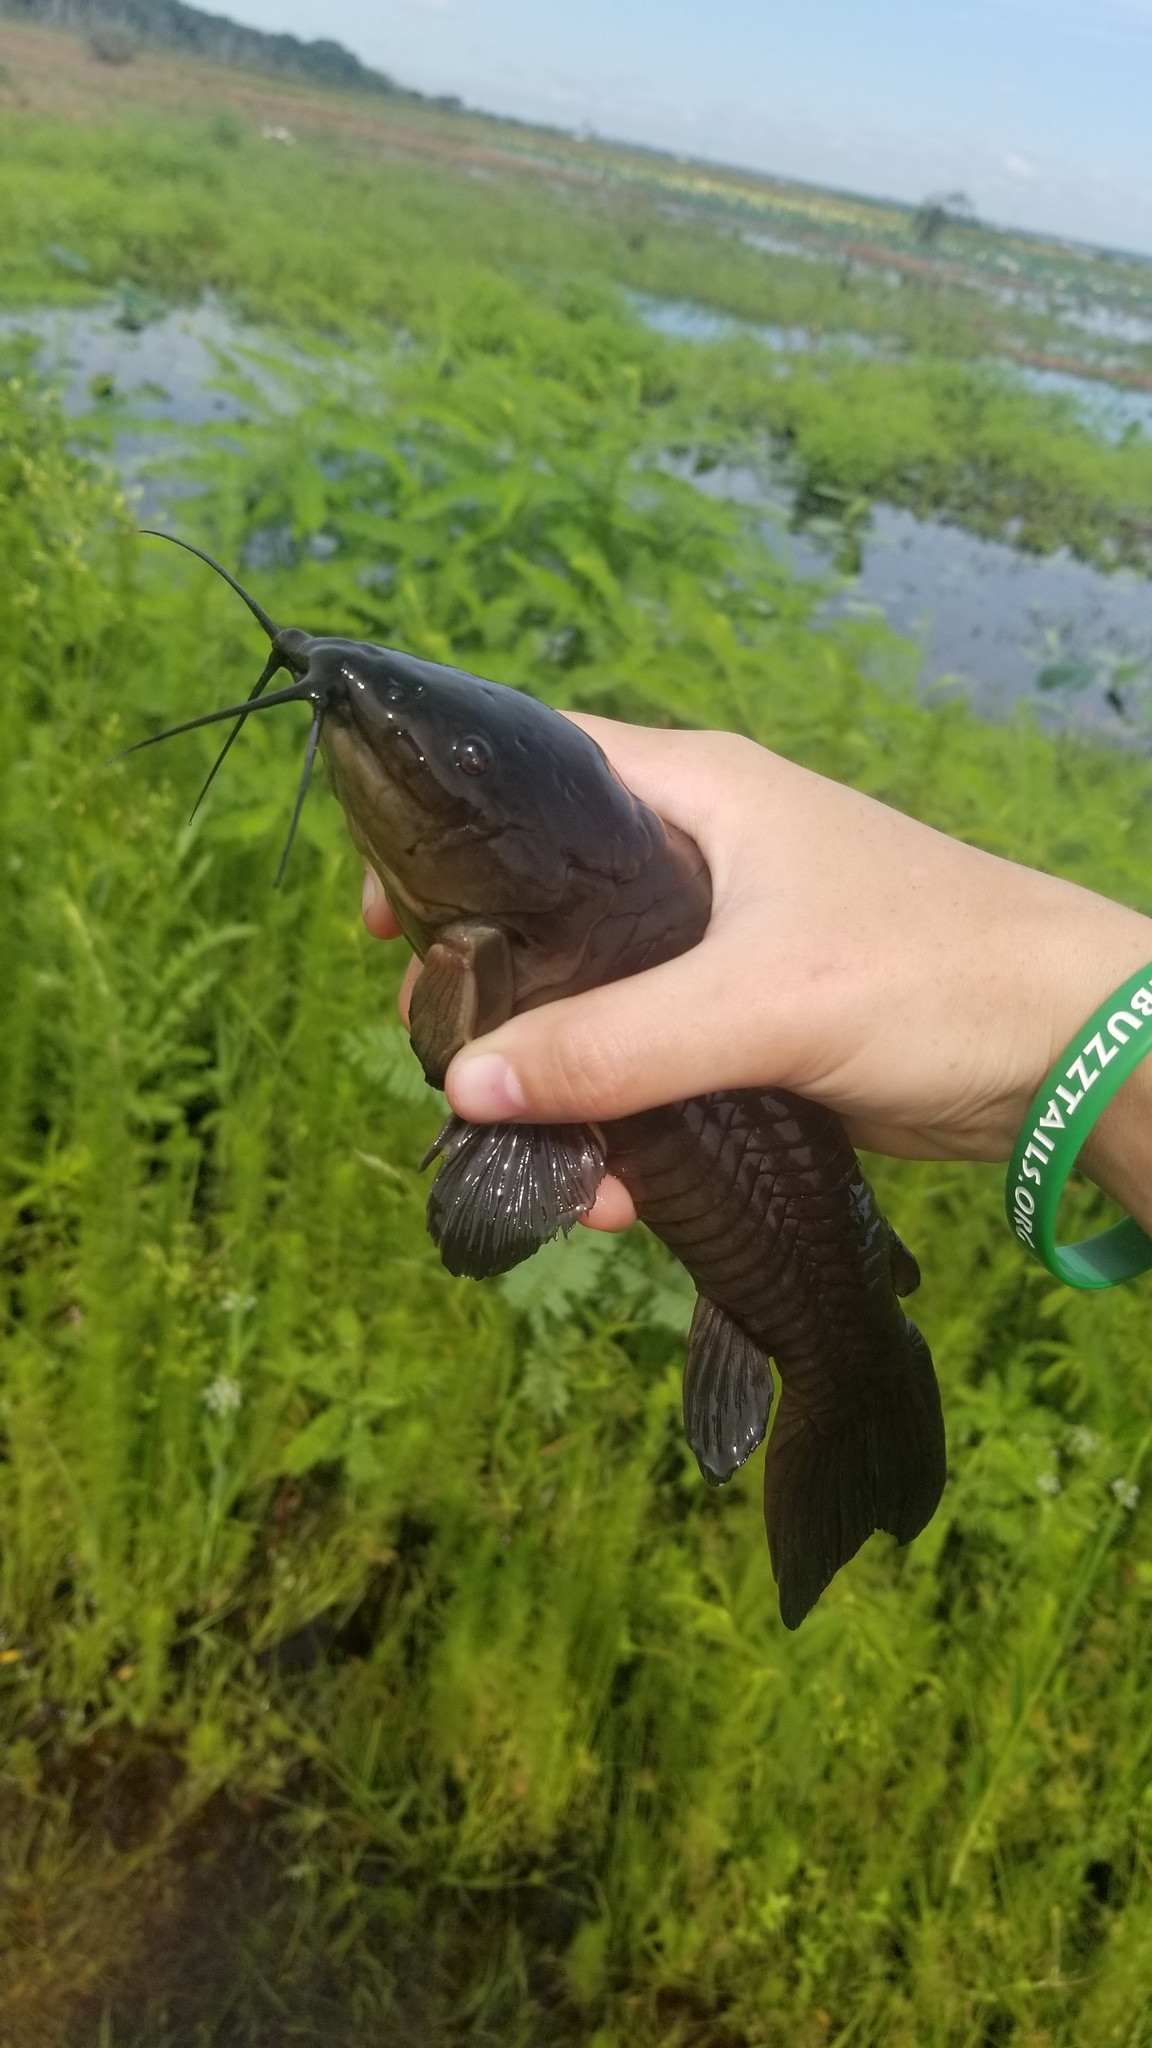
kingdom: Animalia
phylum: Chordata
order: Siluriformes
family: Callichthyidae
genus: Hoplosternum
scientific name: Hoplosternum littorale
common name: Brown hoplo
